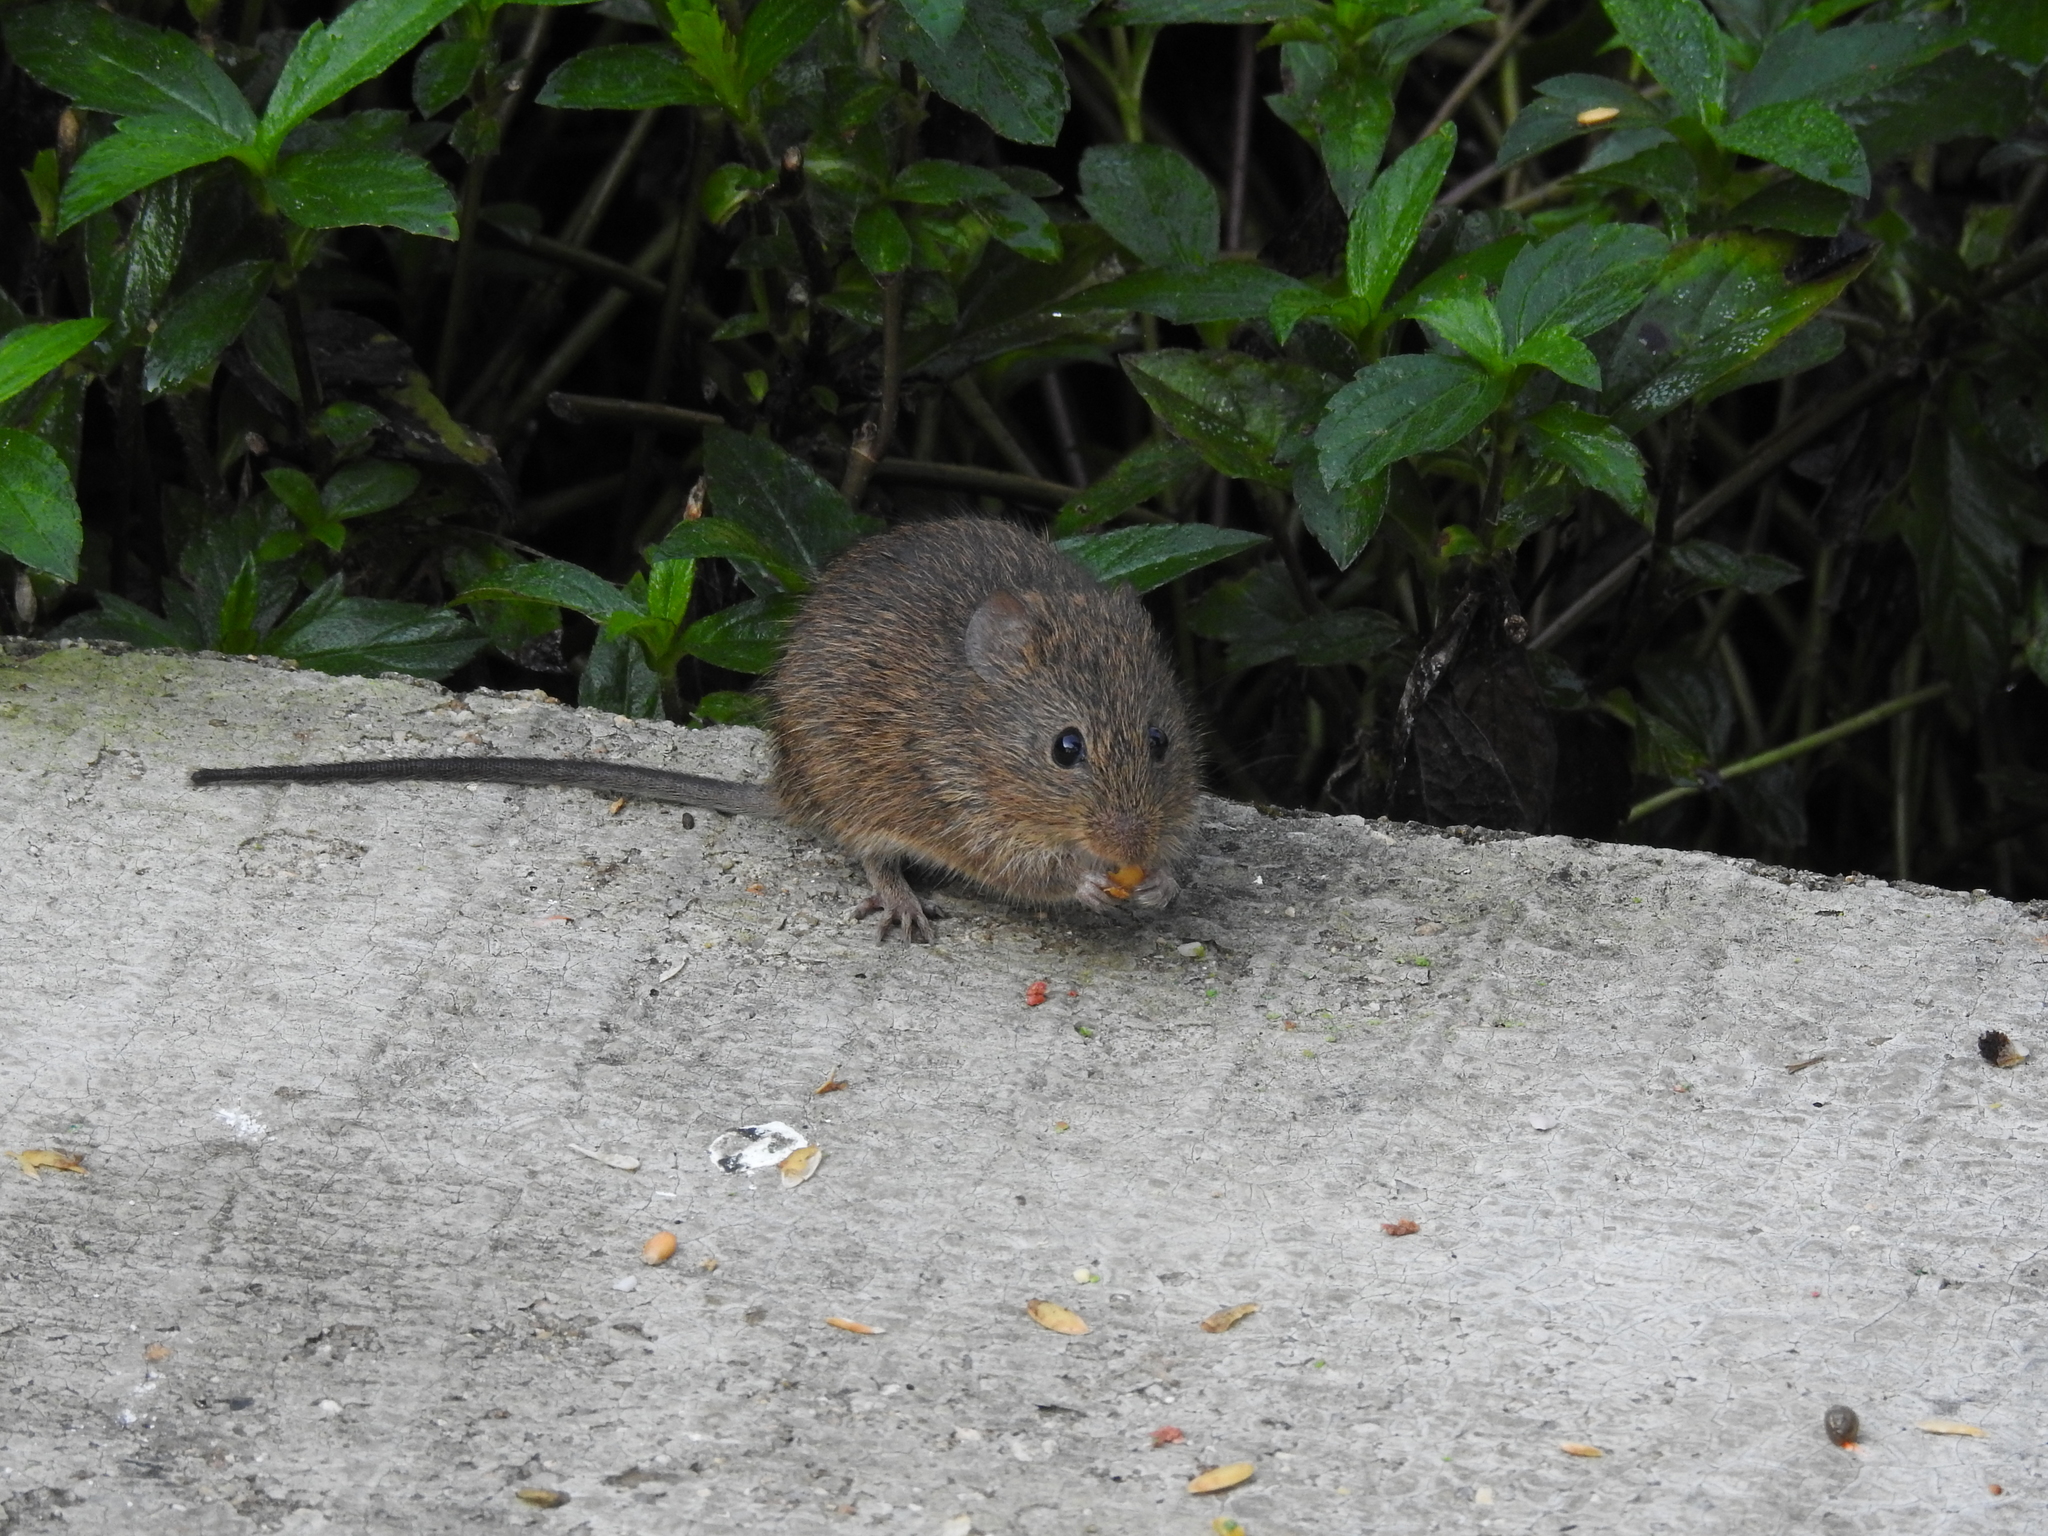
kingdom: Animalia
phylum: Chordata
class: Mammalia
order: Rodentia
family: Cricetidae
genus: Sigmodon
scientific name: Sigmodon mascotensis
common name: West mexican cotton rat
